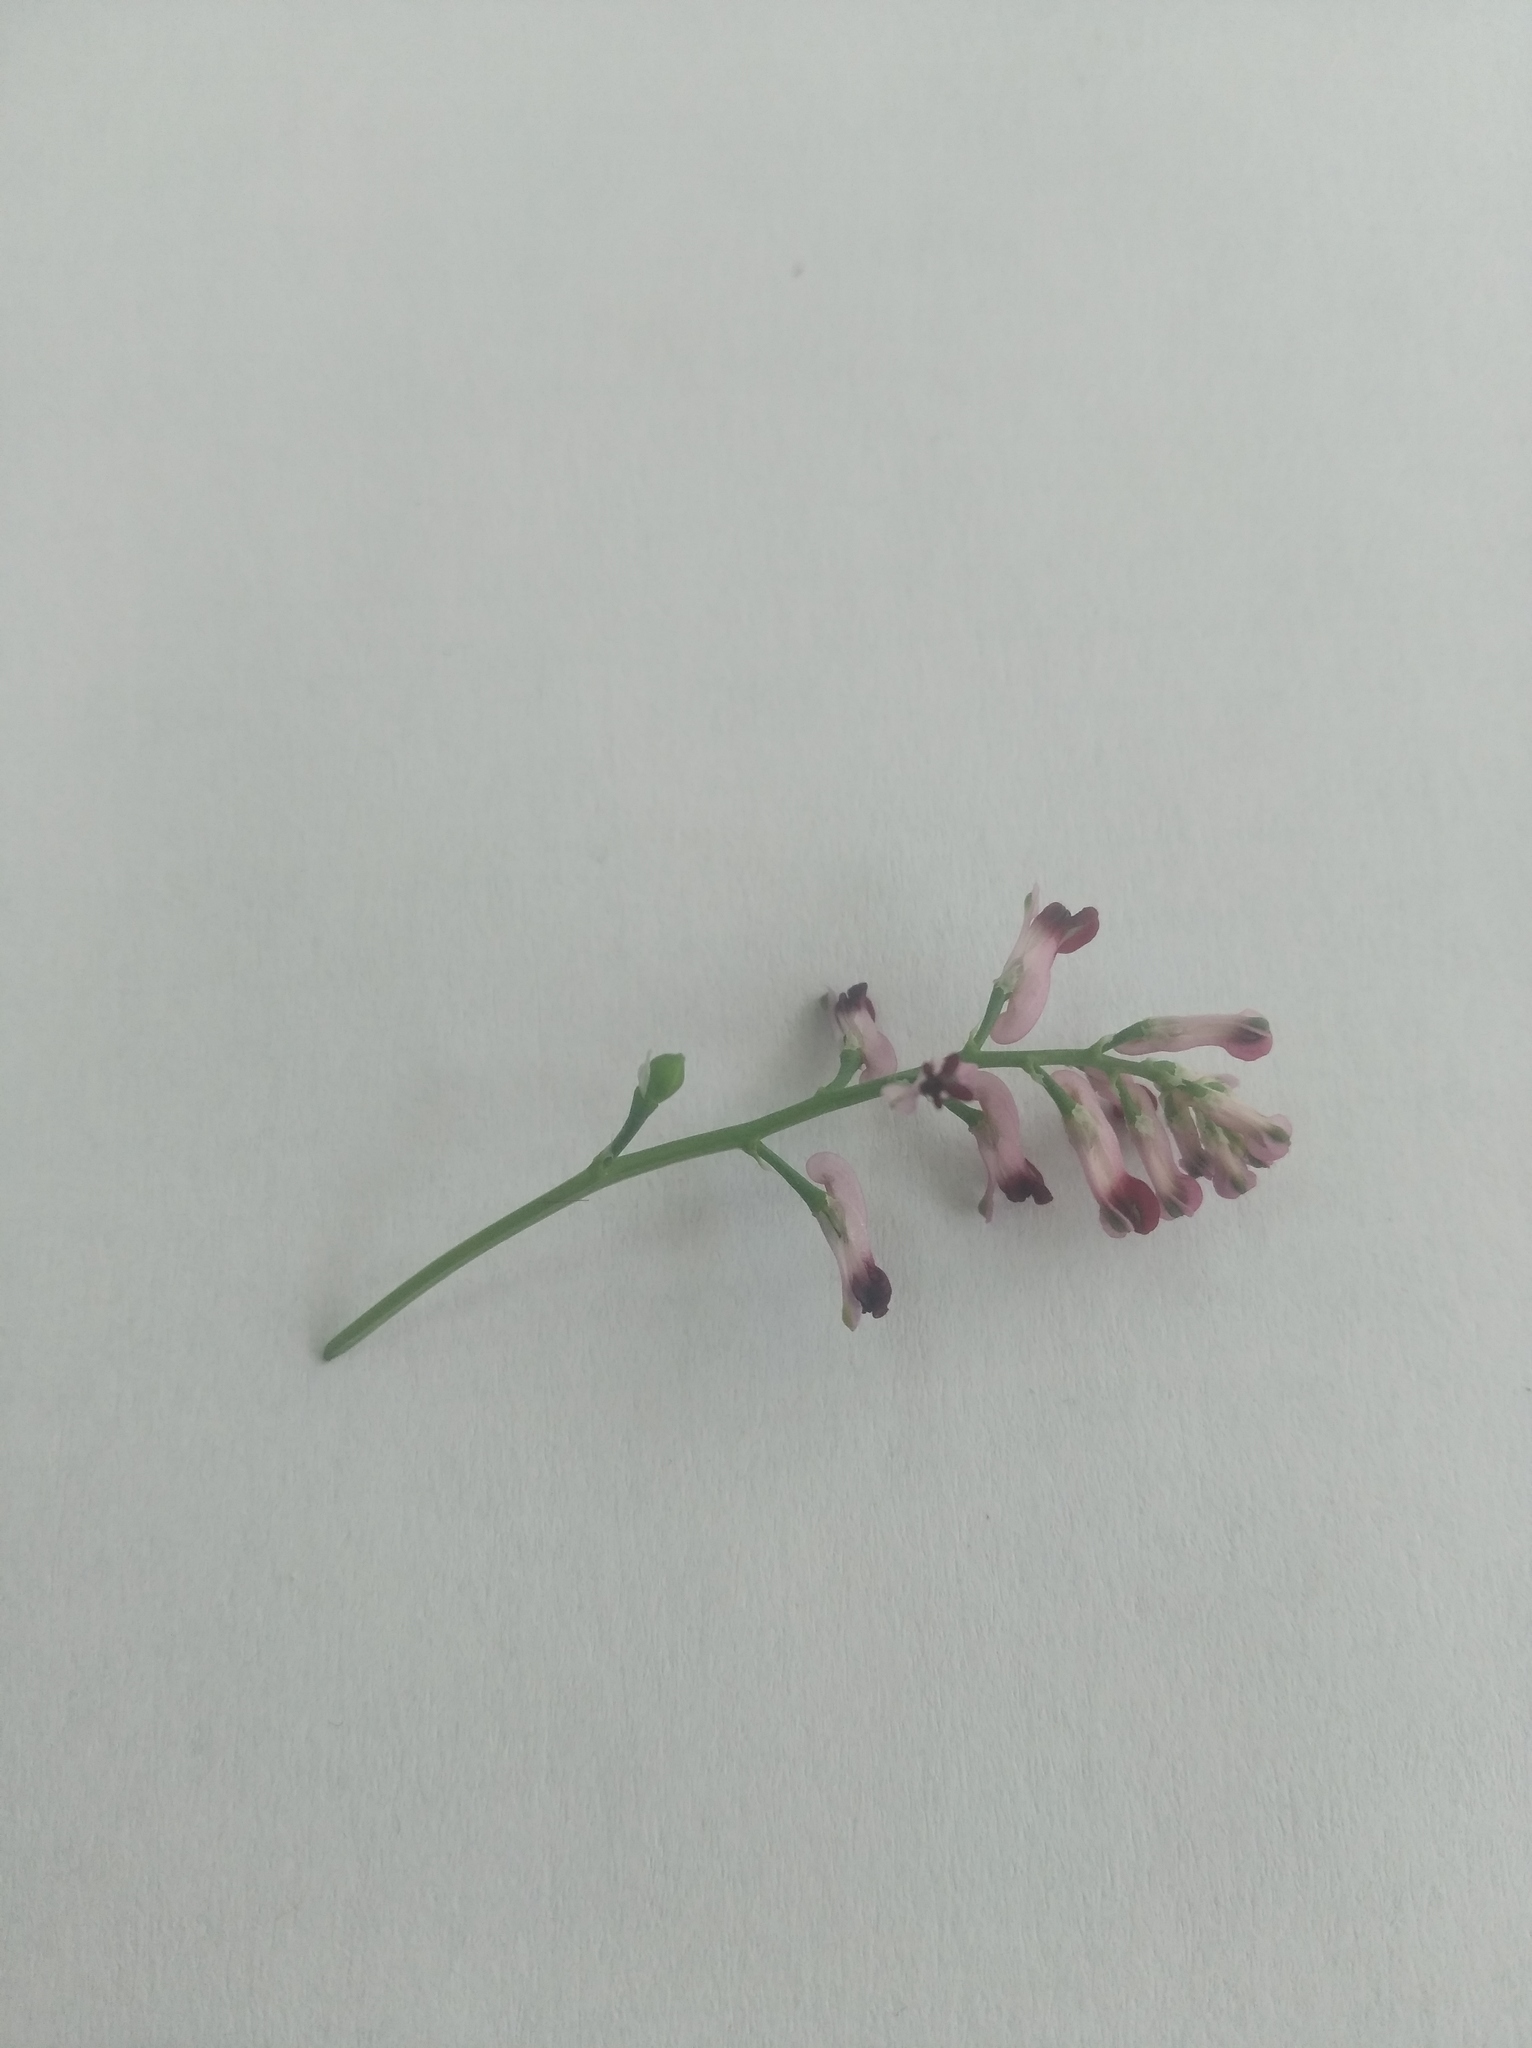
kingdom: Plantae
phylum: Tracheophyta
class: Magnoliopsida
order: Ranunculales
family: Papaveraceae
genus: Fumaria
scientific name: Fumaria schleicheri
